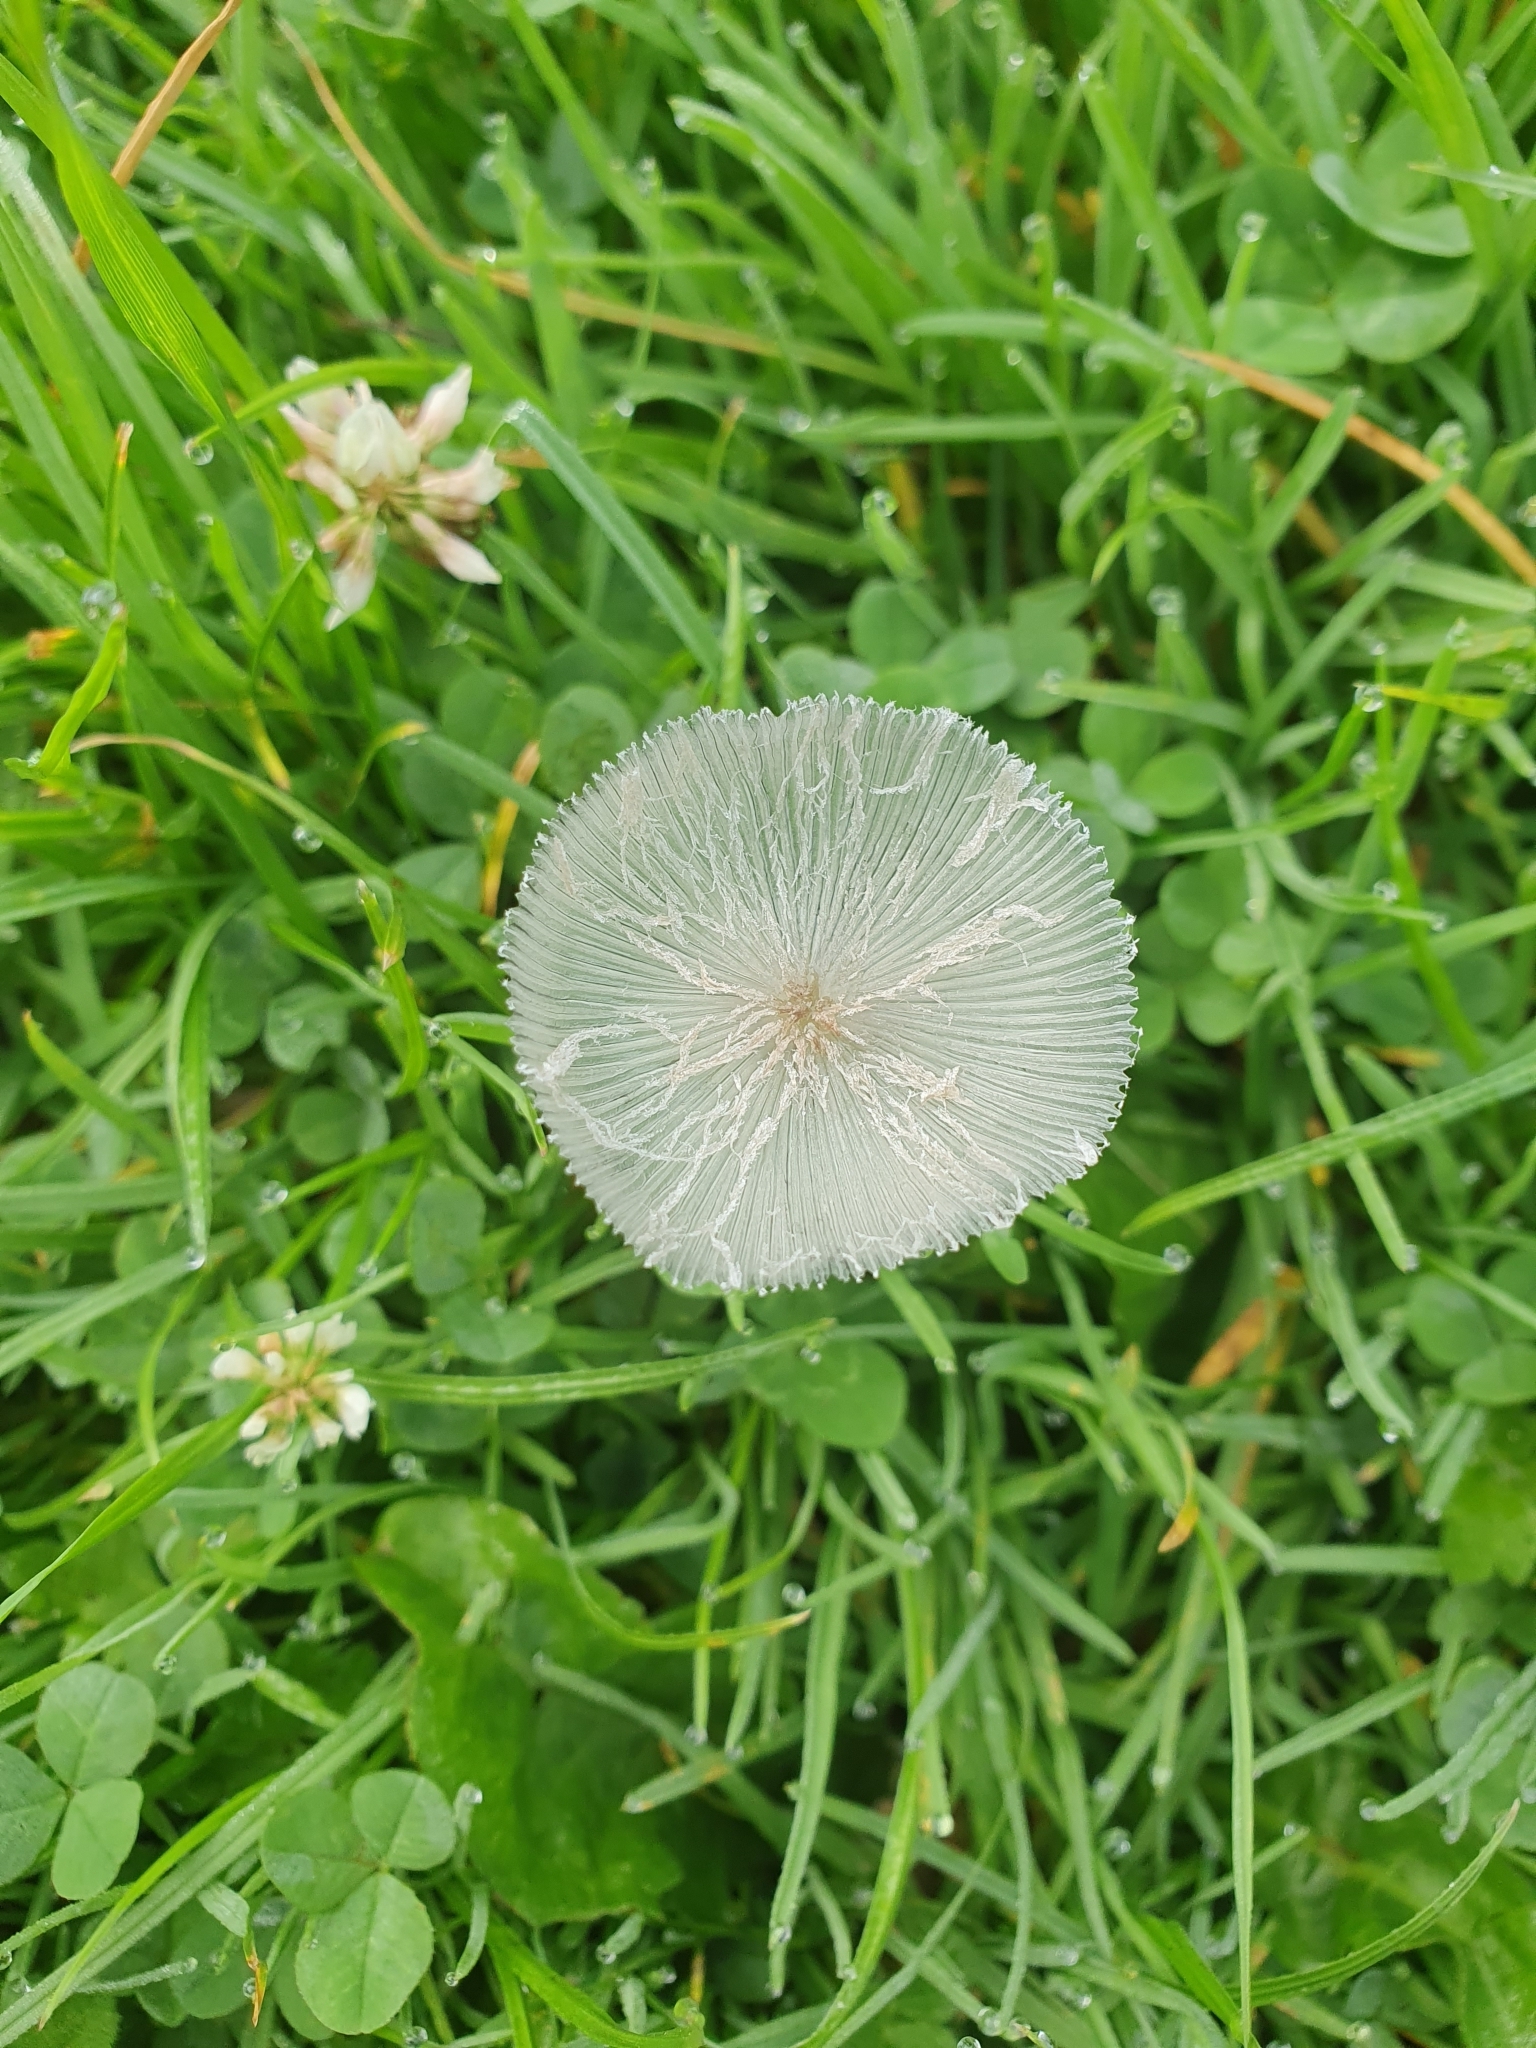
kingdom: Fungi
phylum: Basidiomycota
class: Agaricomycetes
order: Agaricales
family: Psathyrellaceae
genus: Coprinopsis
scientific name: Coprinopsis lagopus
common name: Hare'sfoot inkcap
